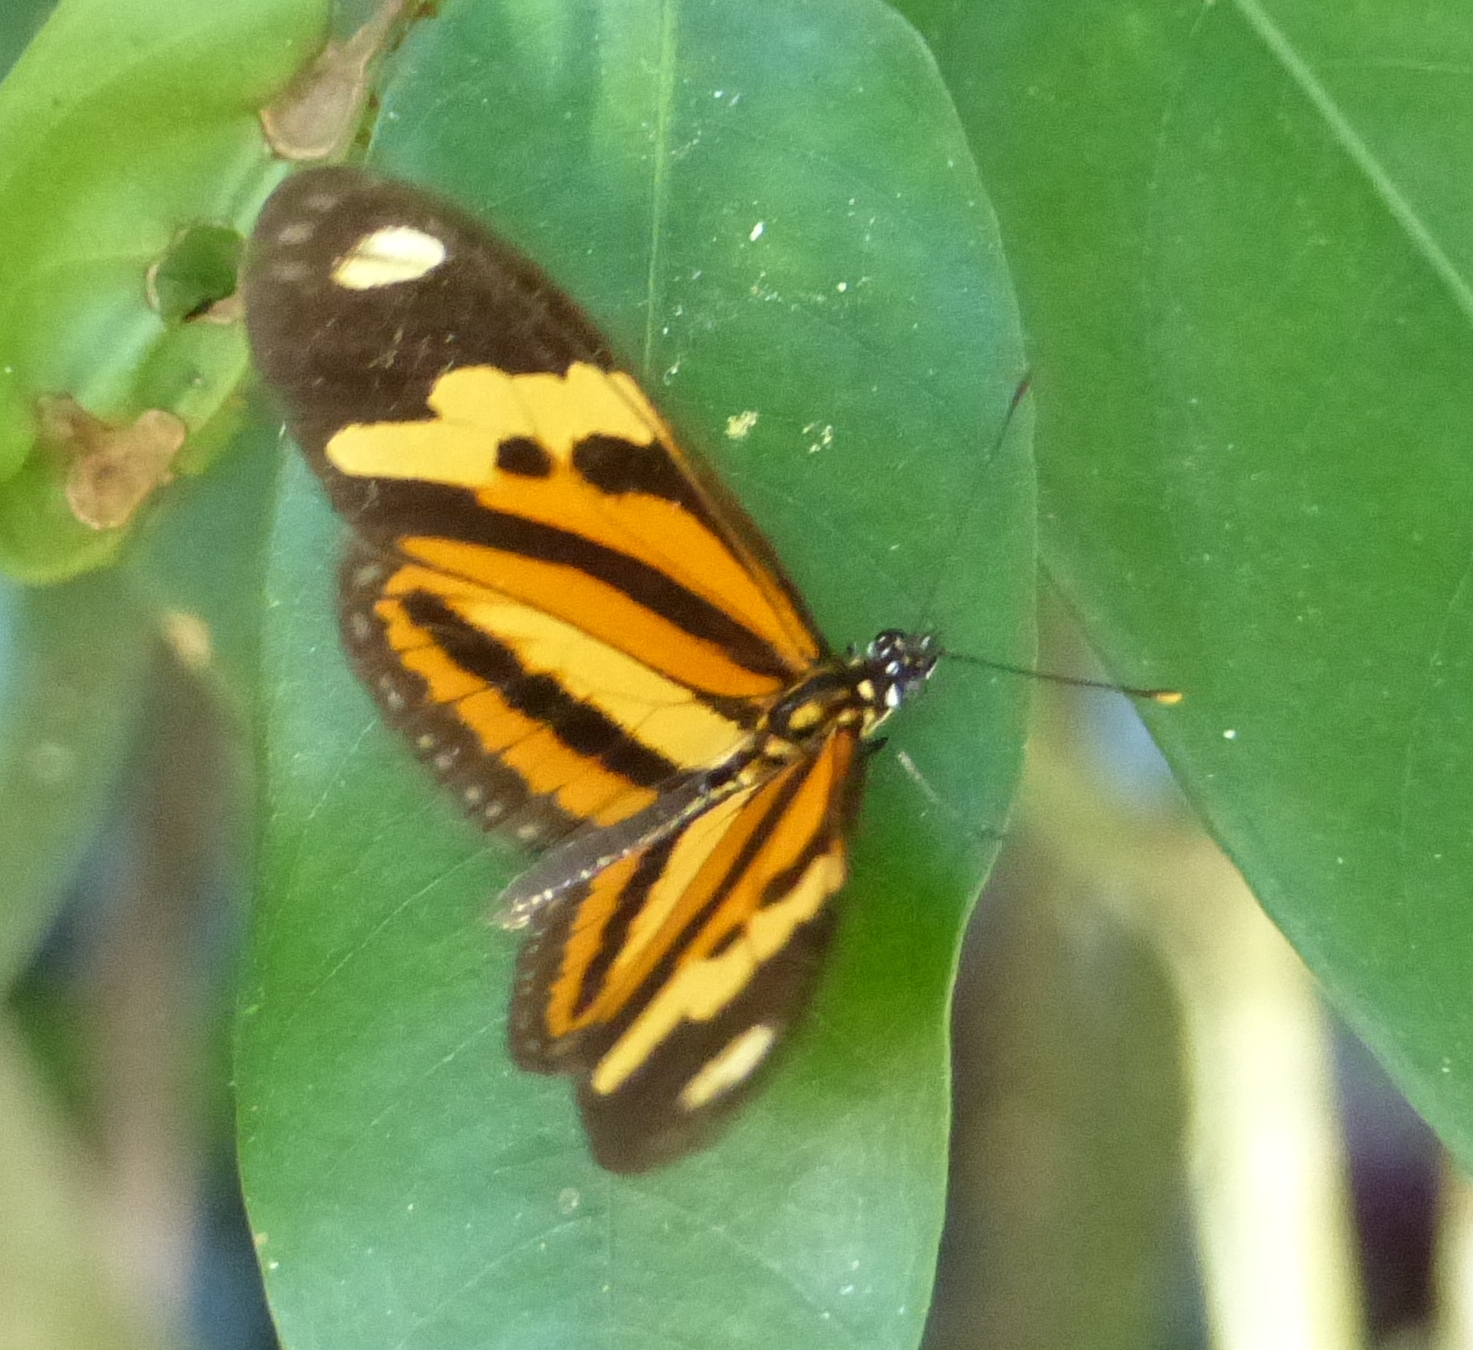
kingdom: Animalia
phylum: Arthropoda
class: Insecta
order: Lepidoptera
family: Nymphalidae
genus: Eueides
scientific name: Eueides isabella
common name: Isabella's longwing
